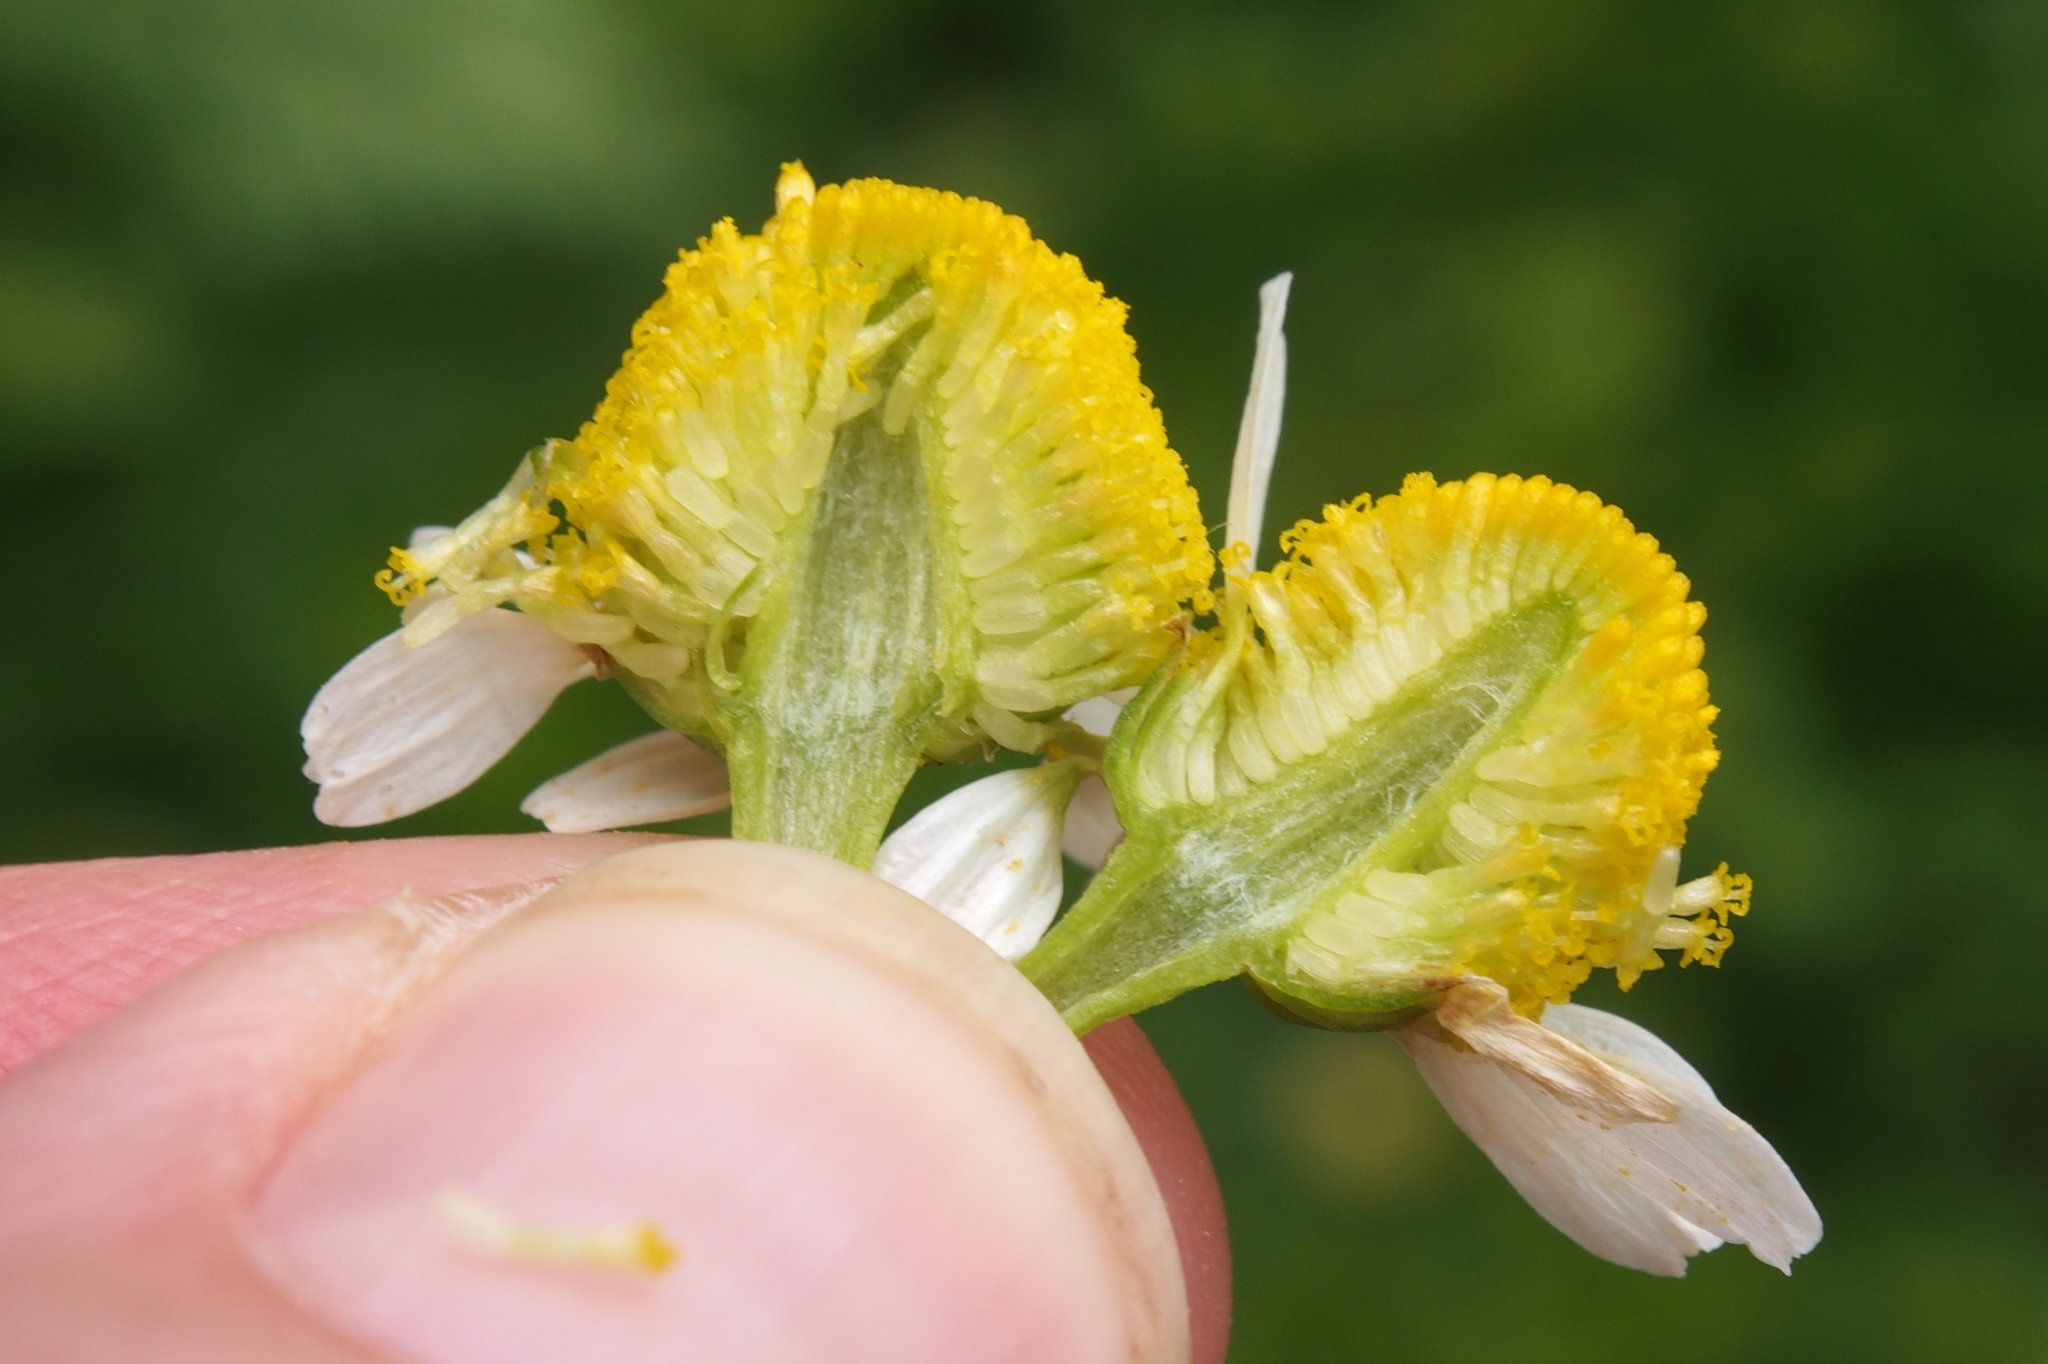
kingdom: Plantae
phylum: Tracheophyta
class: Magnoliopsida
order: Asterales
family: Asteraceae
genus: Matricaria
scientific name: Matricaria chamomilla
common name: Scented mayweed
